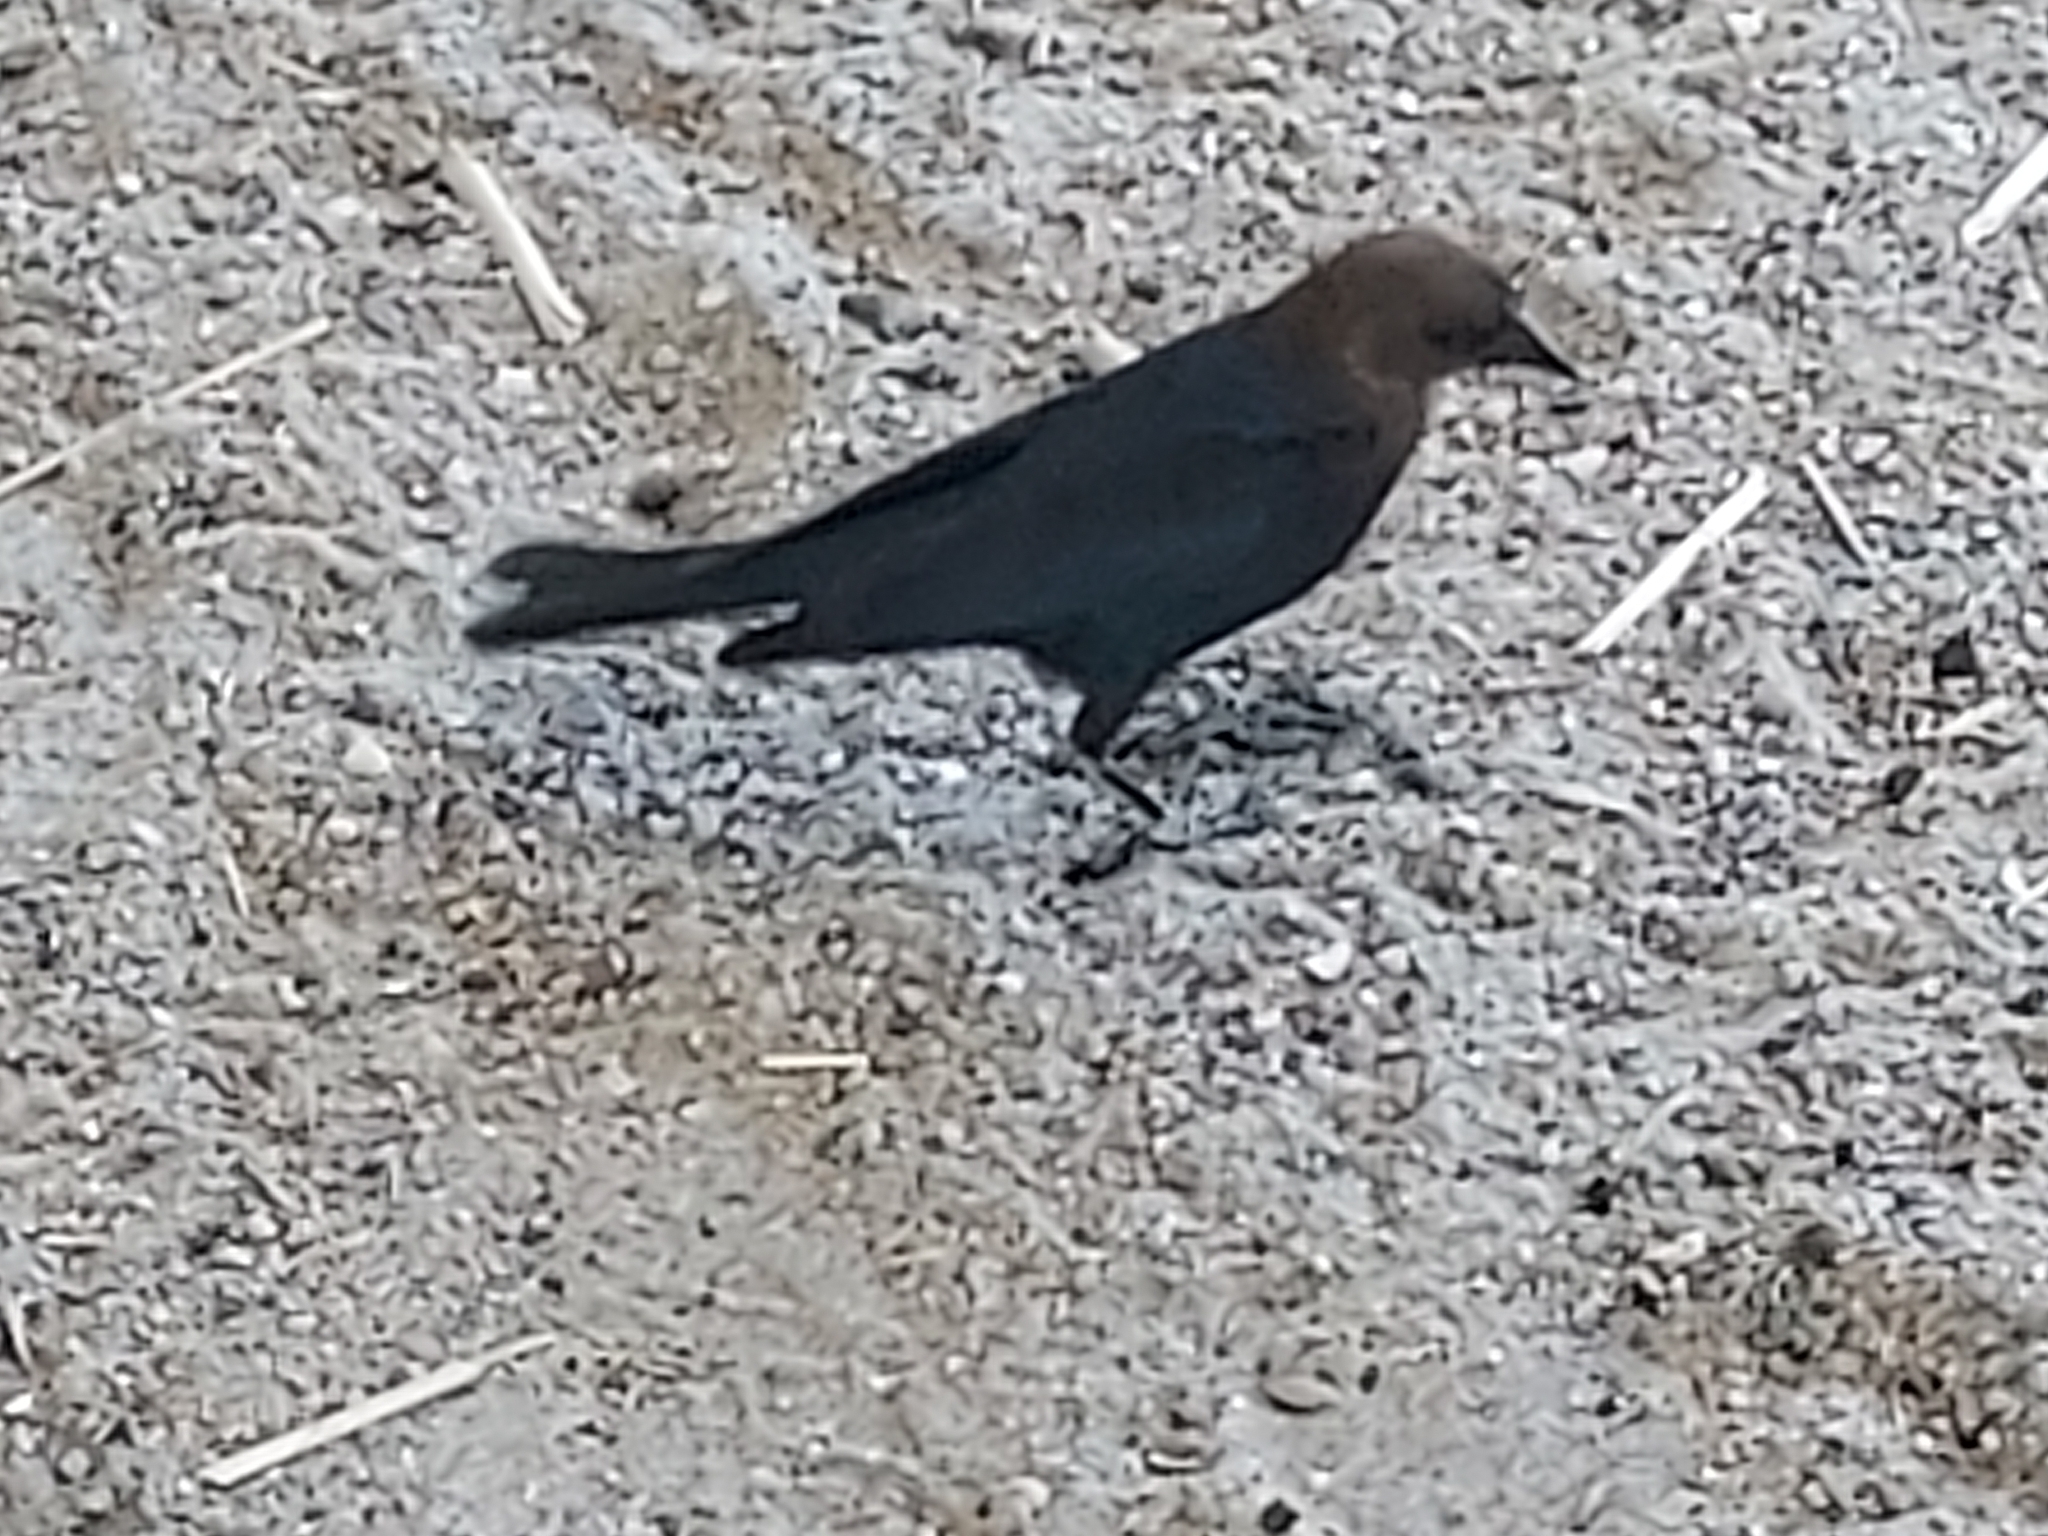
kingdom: Animalia
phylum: Chordata
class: Aves
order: Passeriformes
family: Icteridae
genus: Molothrus
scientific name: Molothrus ater
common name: Brown-headed cowbird
